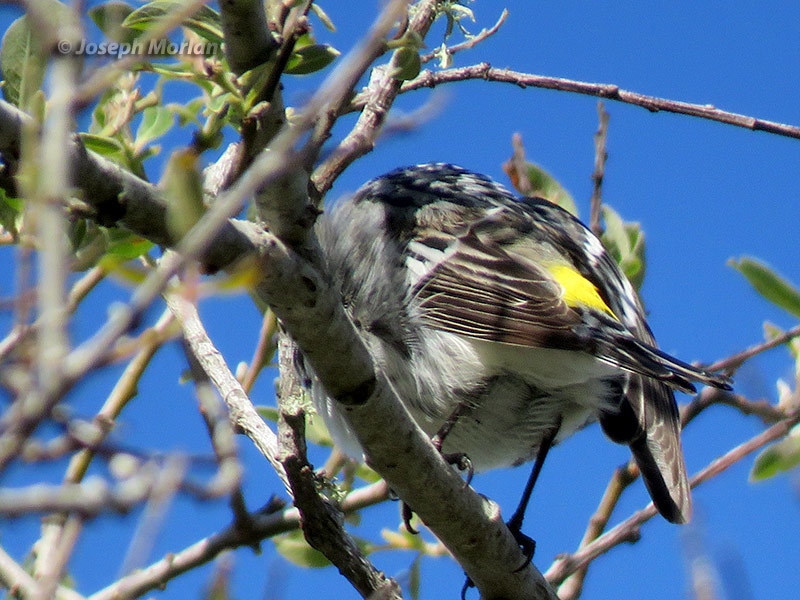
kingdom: Animalia
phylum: Chordata
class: Aves
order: Passeriformes
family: Parulidae
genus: Setophaga
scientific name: Setophaga coronata
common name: Myrtle warbler
